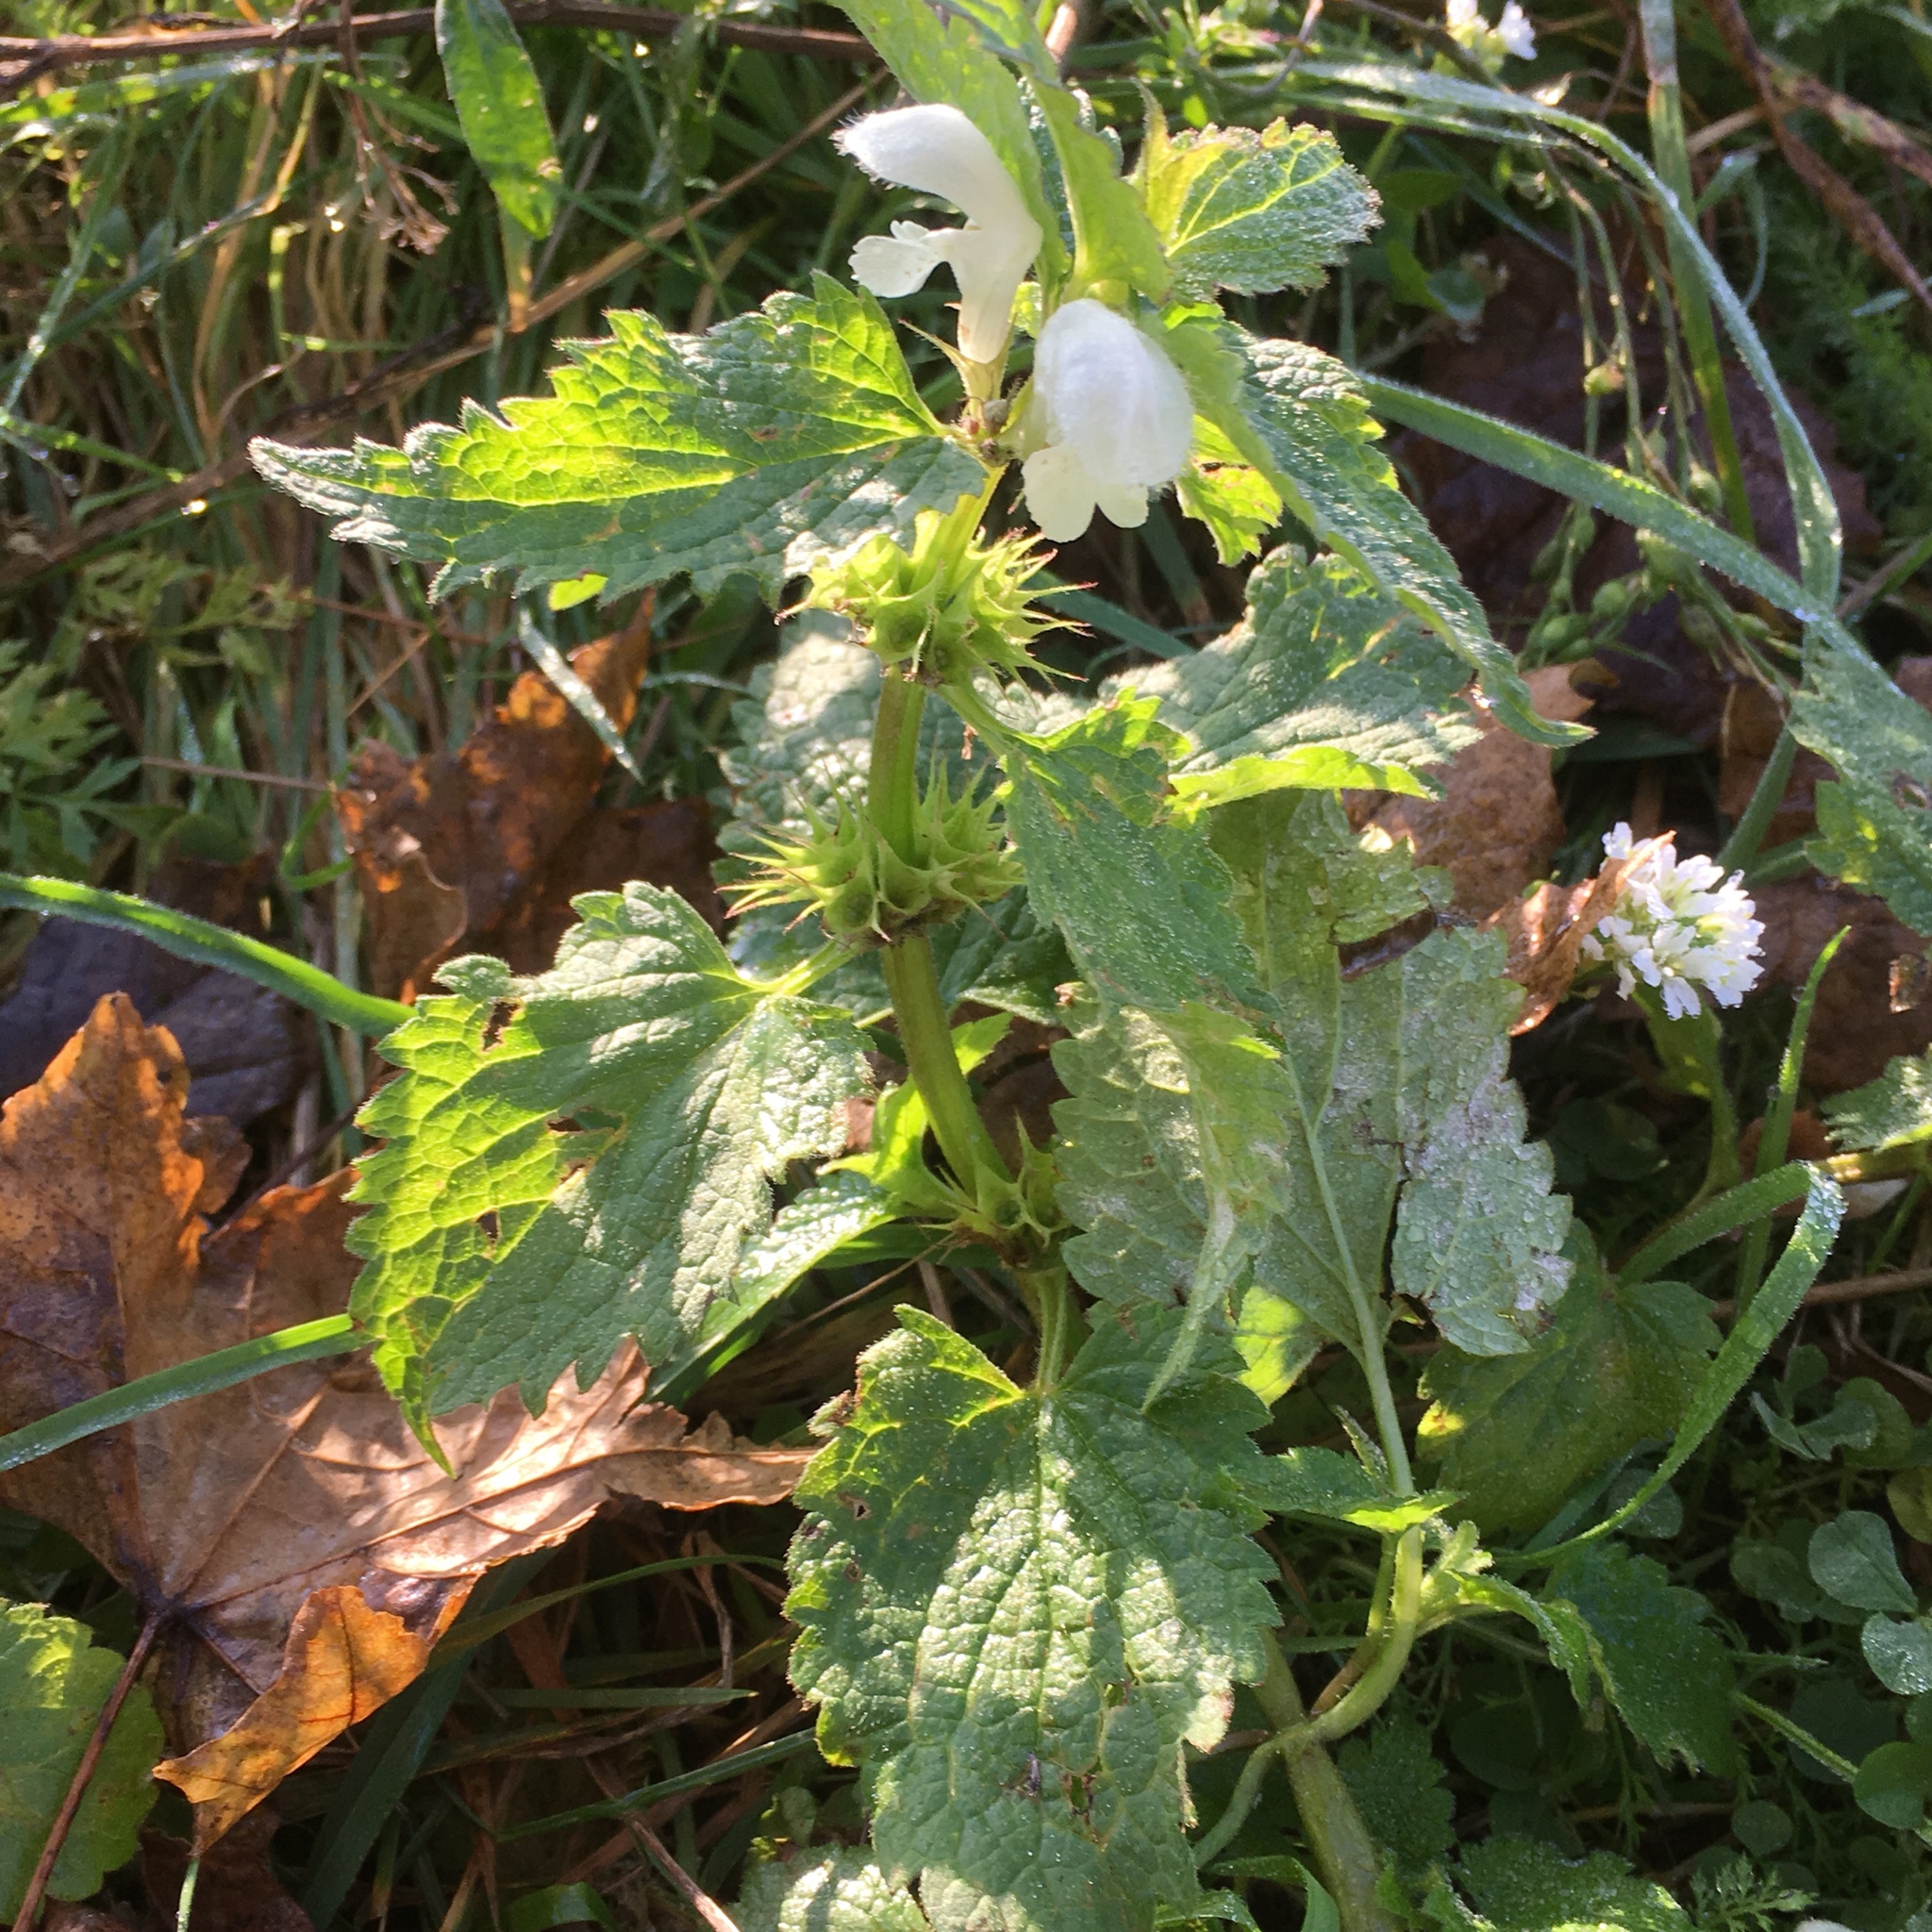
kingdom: Plantae
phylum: Tracheophyta
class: Magnoliopsida
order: Lamiales
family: Lamiaceae
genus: Lamium
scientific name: Lamium album
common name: White dead-nettle
